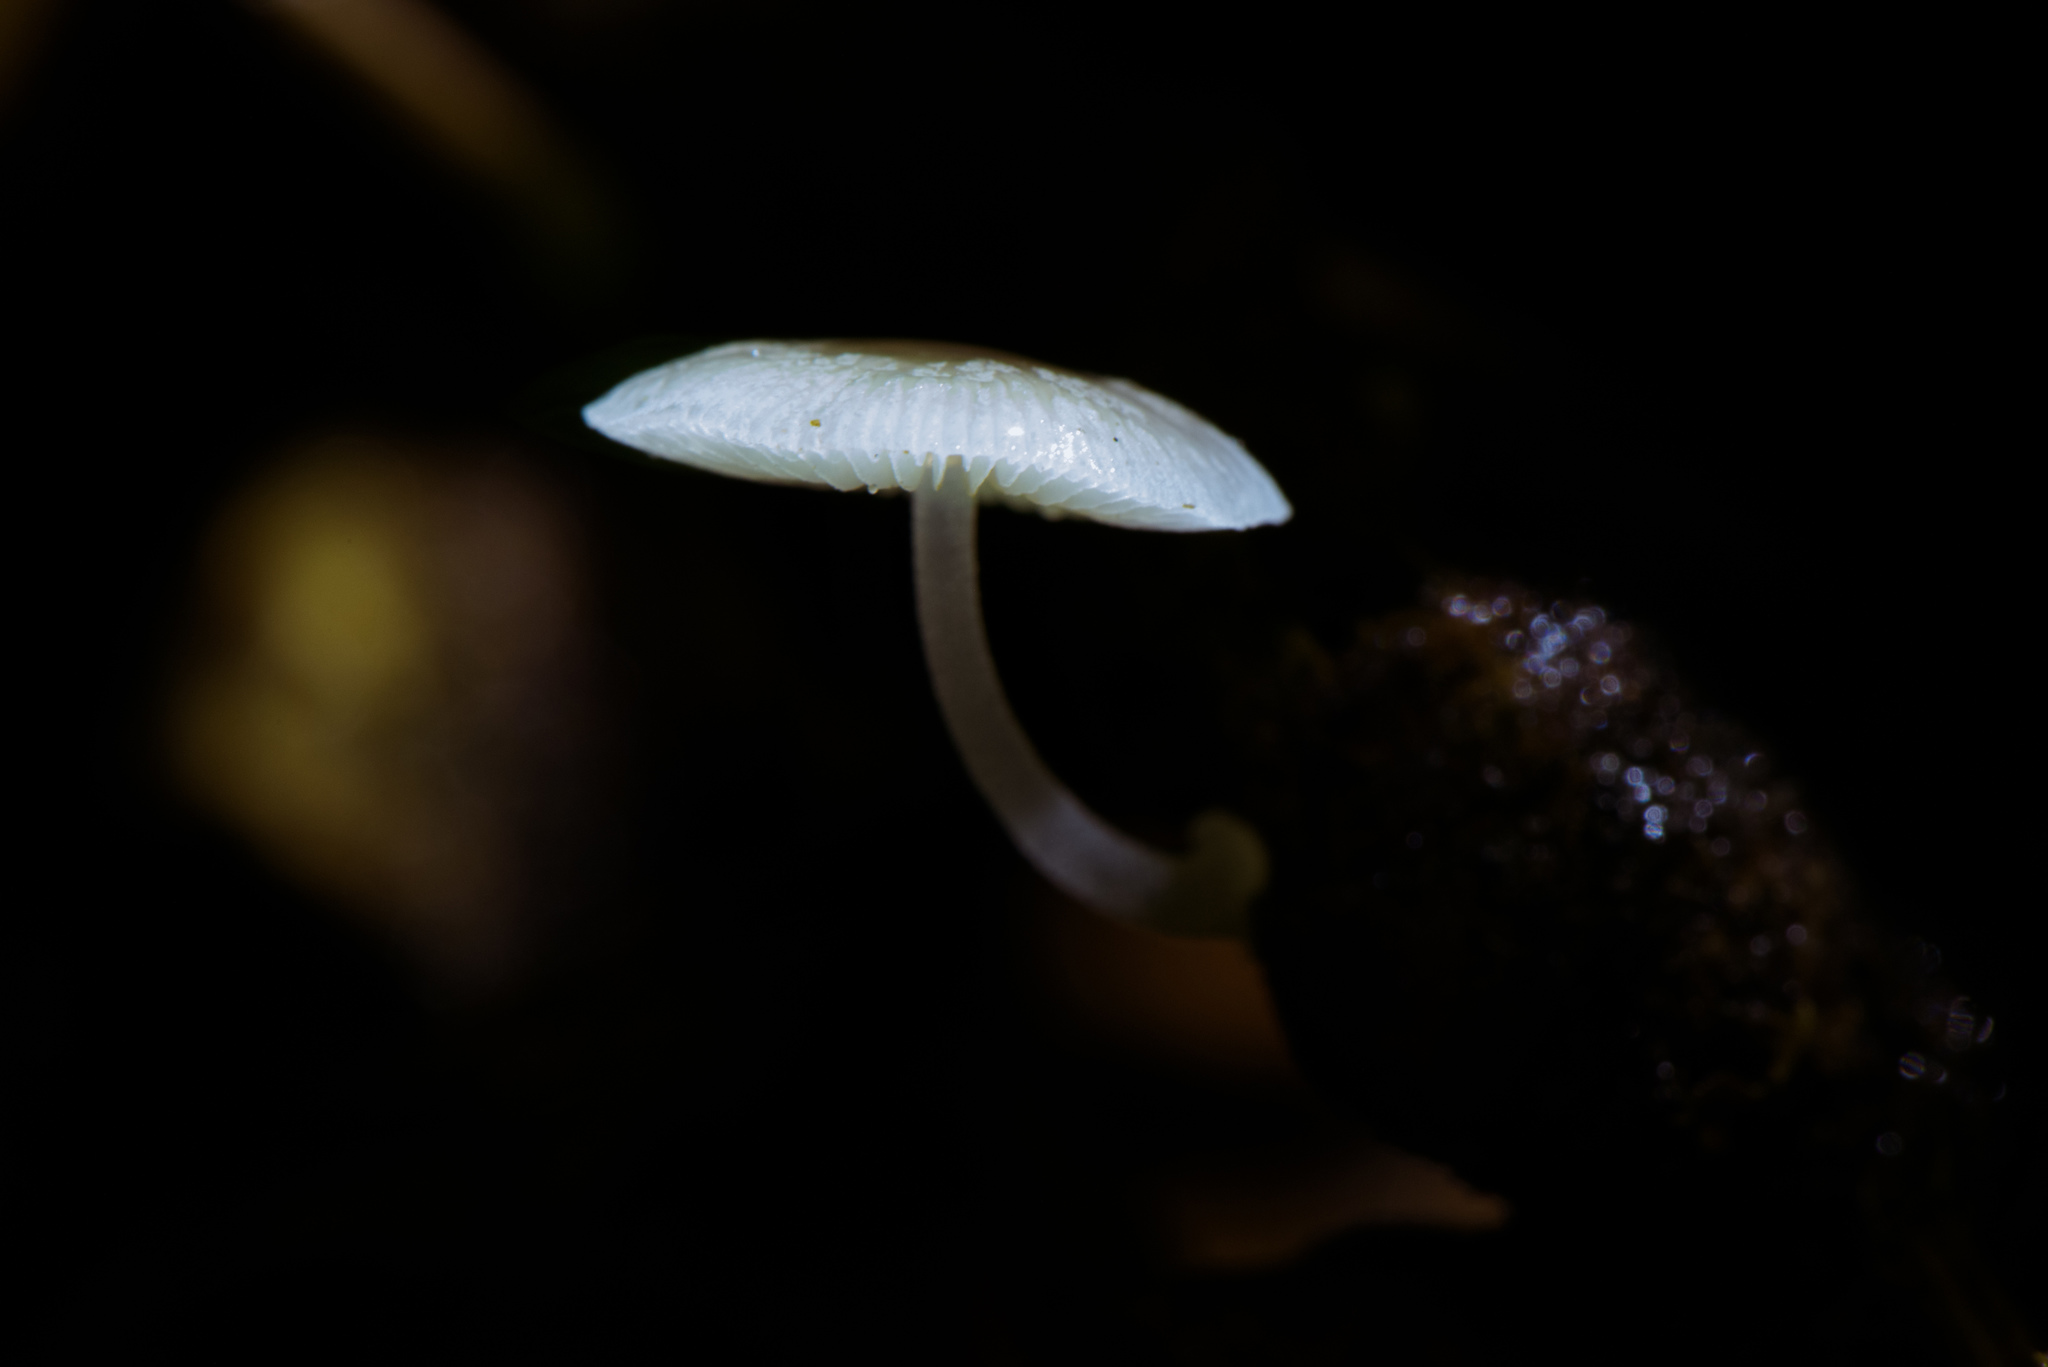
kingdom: Fungi
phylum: Basidiomycota
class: Agaricomycetes
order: Agaricales
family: Mycenaceae
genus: Mycena
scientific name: Mycena chlorophos
